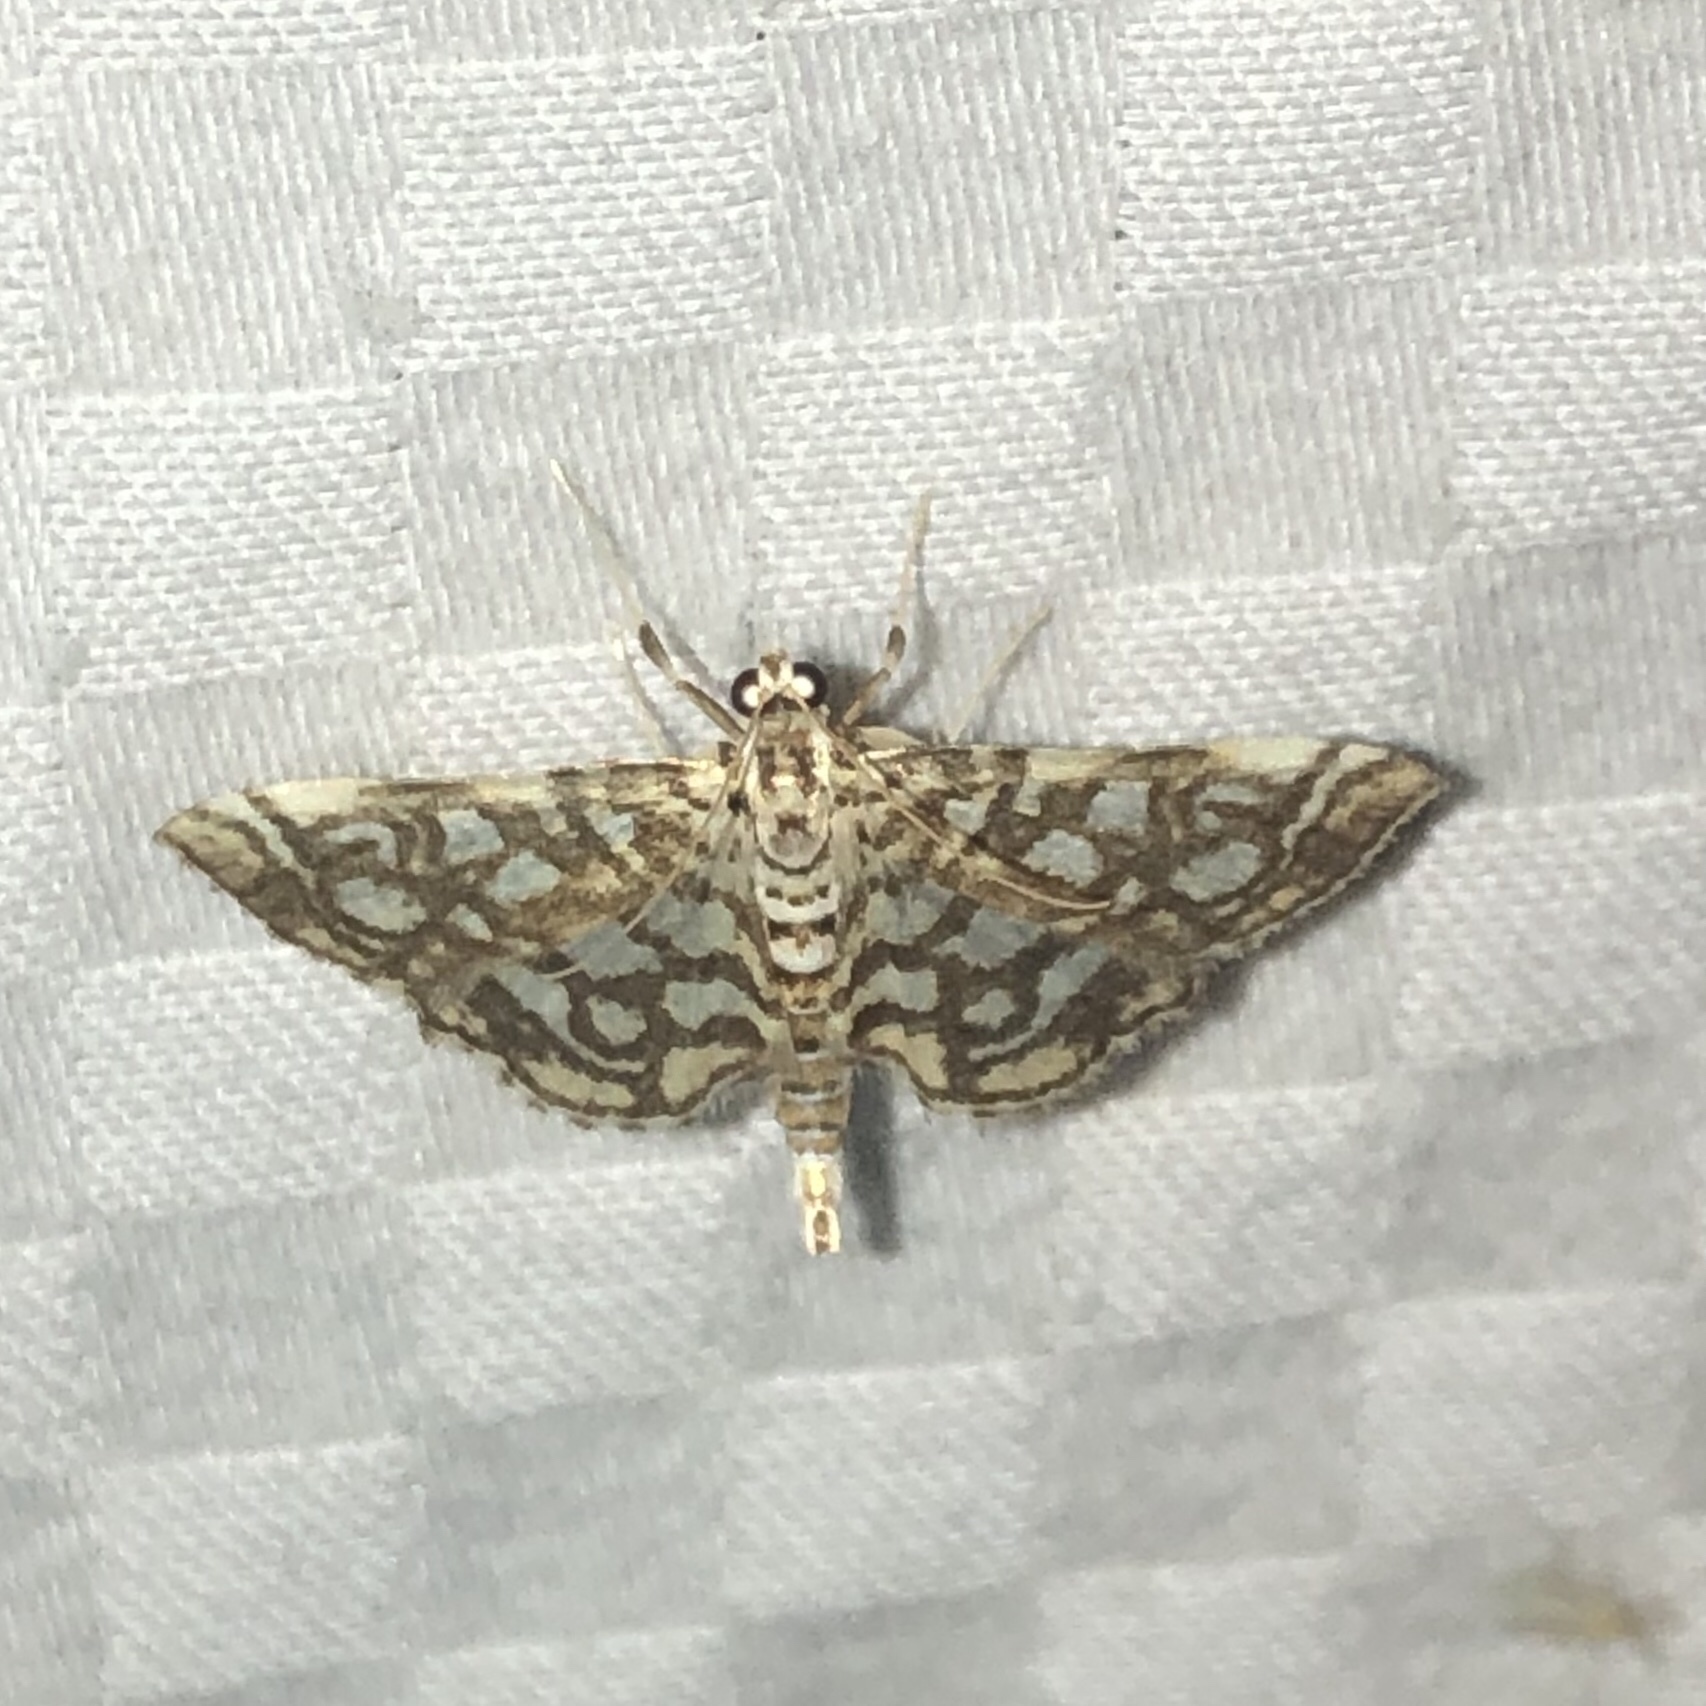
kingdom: Animalia
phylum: Arthropoda
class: Insecta
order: Lepidoptera
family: Crambidae
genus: Lygropia
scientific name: Lygropia rivulalis
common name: Bog lygropia moth
